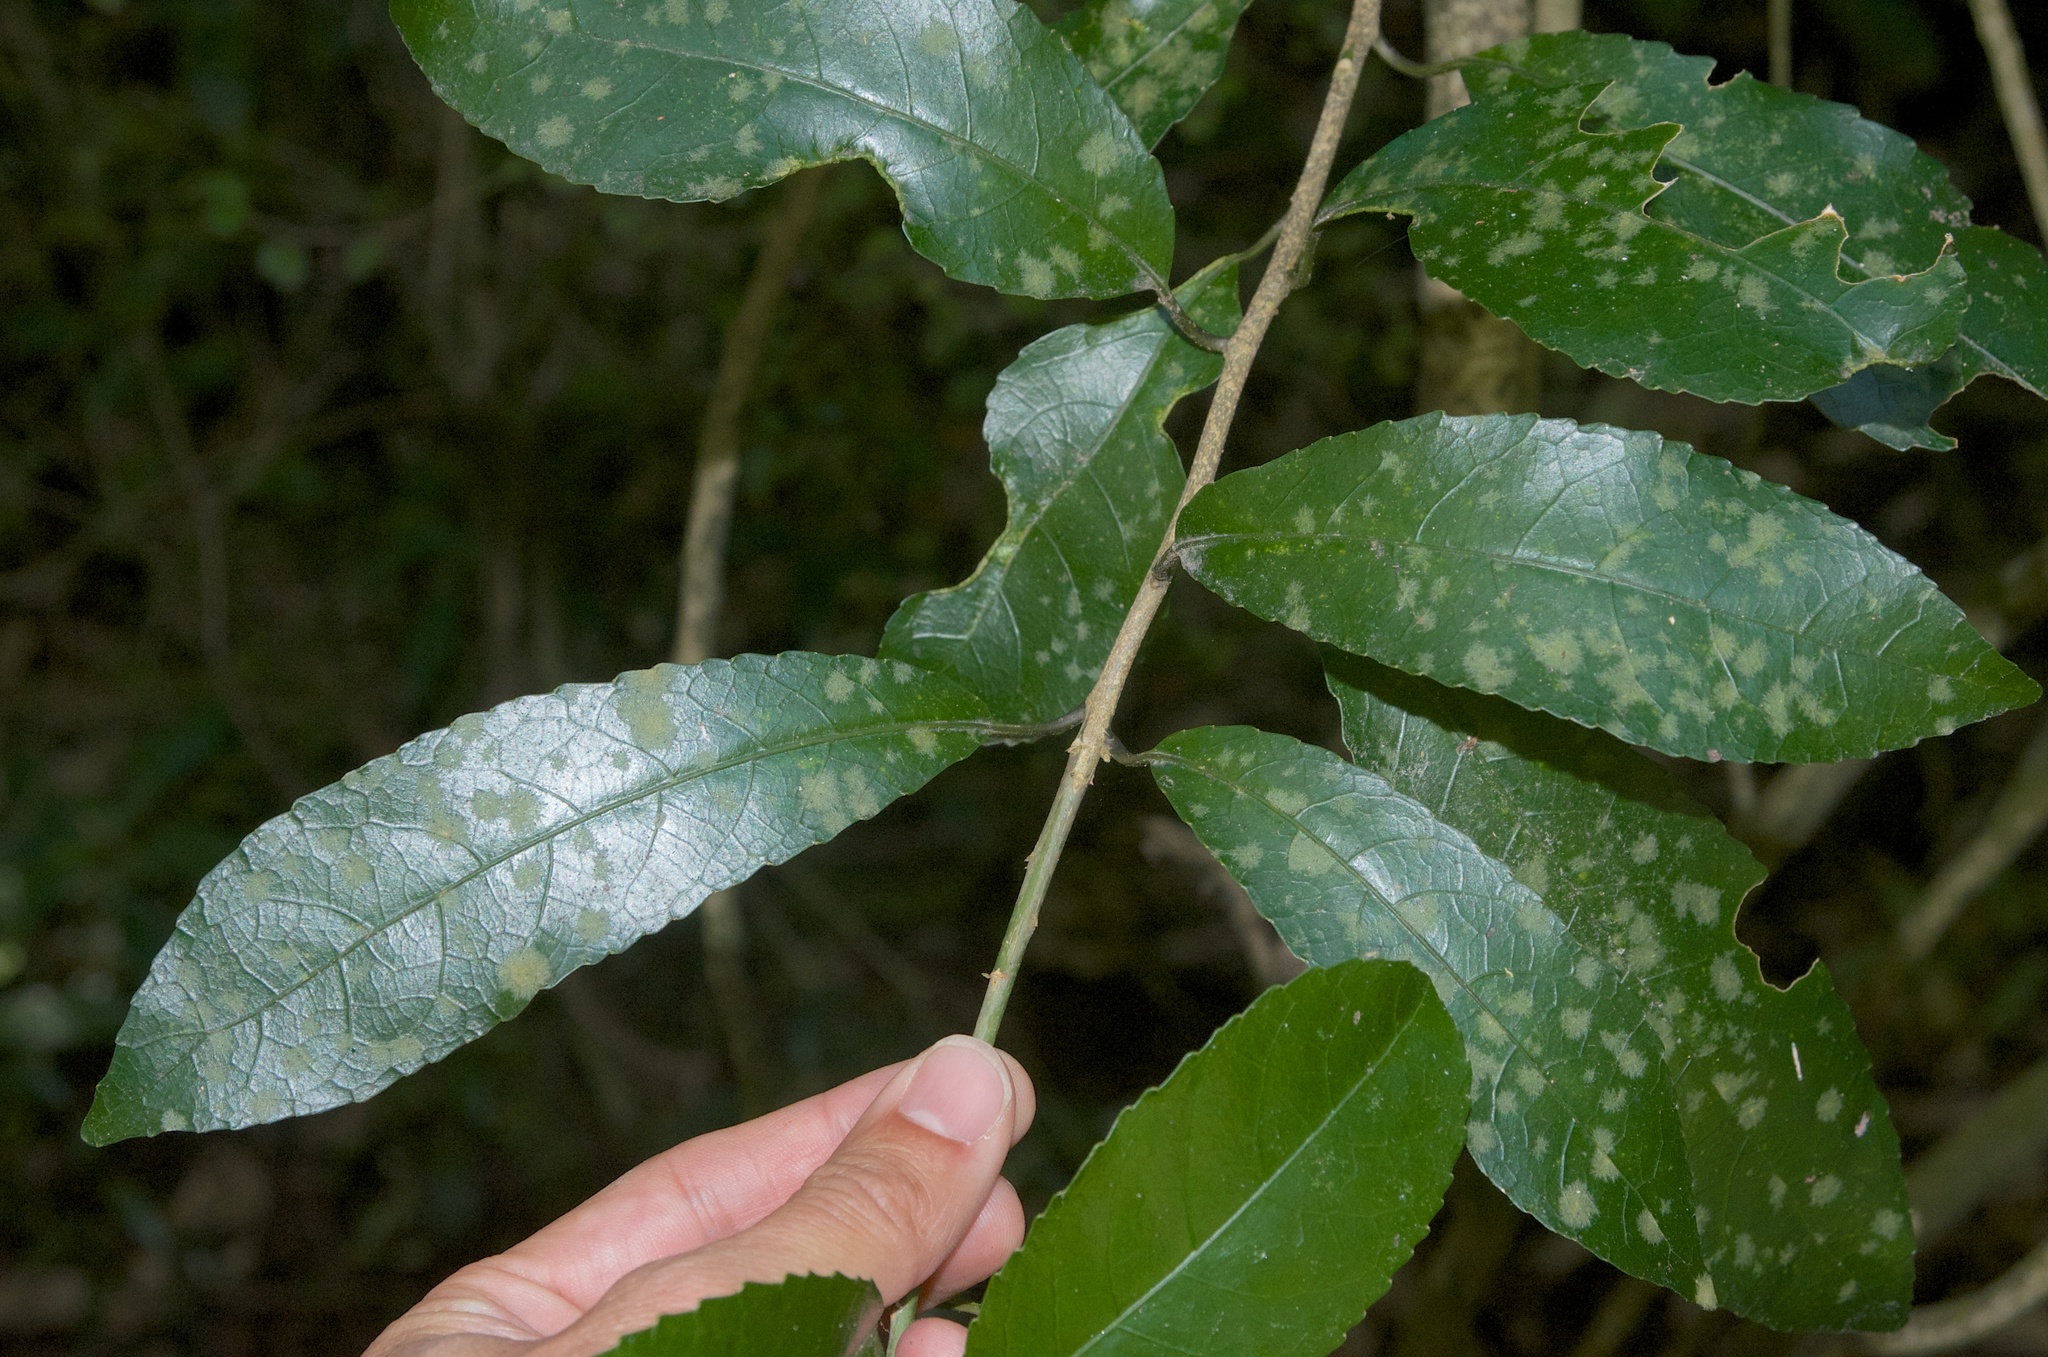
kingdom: Plantae
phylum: Chlorophyta
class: Ulvophyceae
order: Trentepohliales
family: Trentepohliaceae
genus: Cephaleuros
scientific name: Cephaleuros
